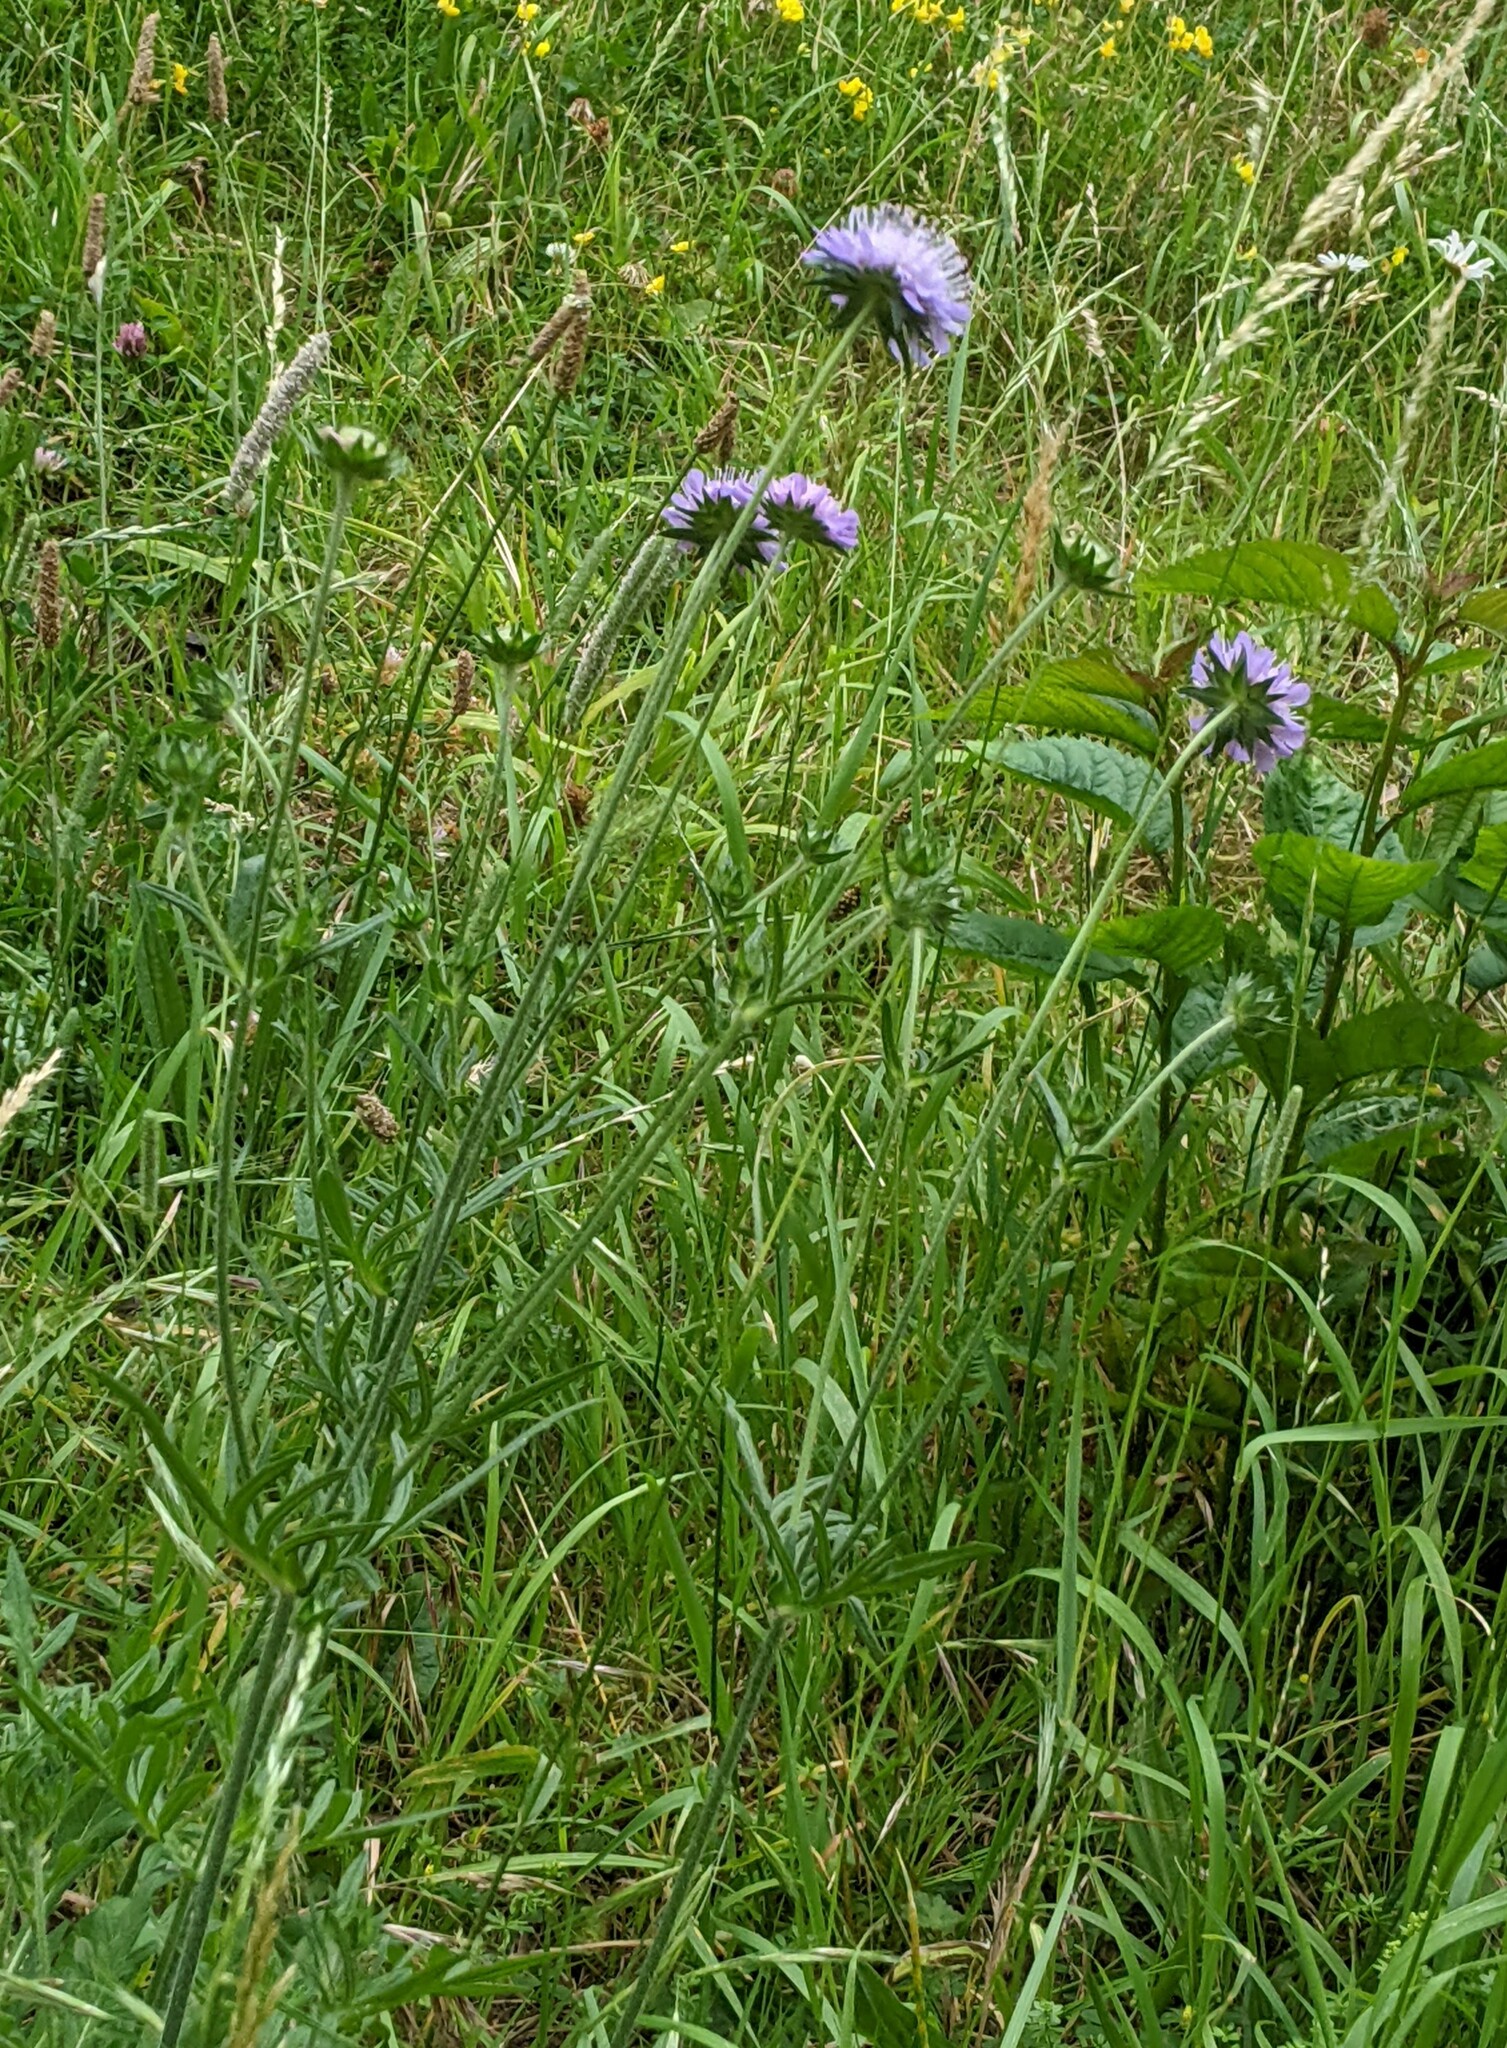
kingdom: Plantae
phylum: Tracheophyta
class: Magnoliopsida
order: Dipsacales
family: Caprifoliaceae
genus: Knautia
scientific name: Knautia arvensis
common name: Field scabiosa
